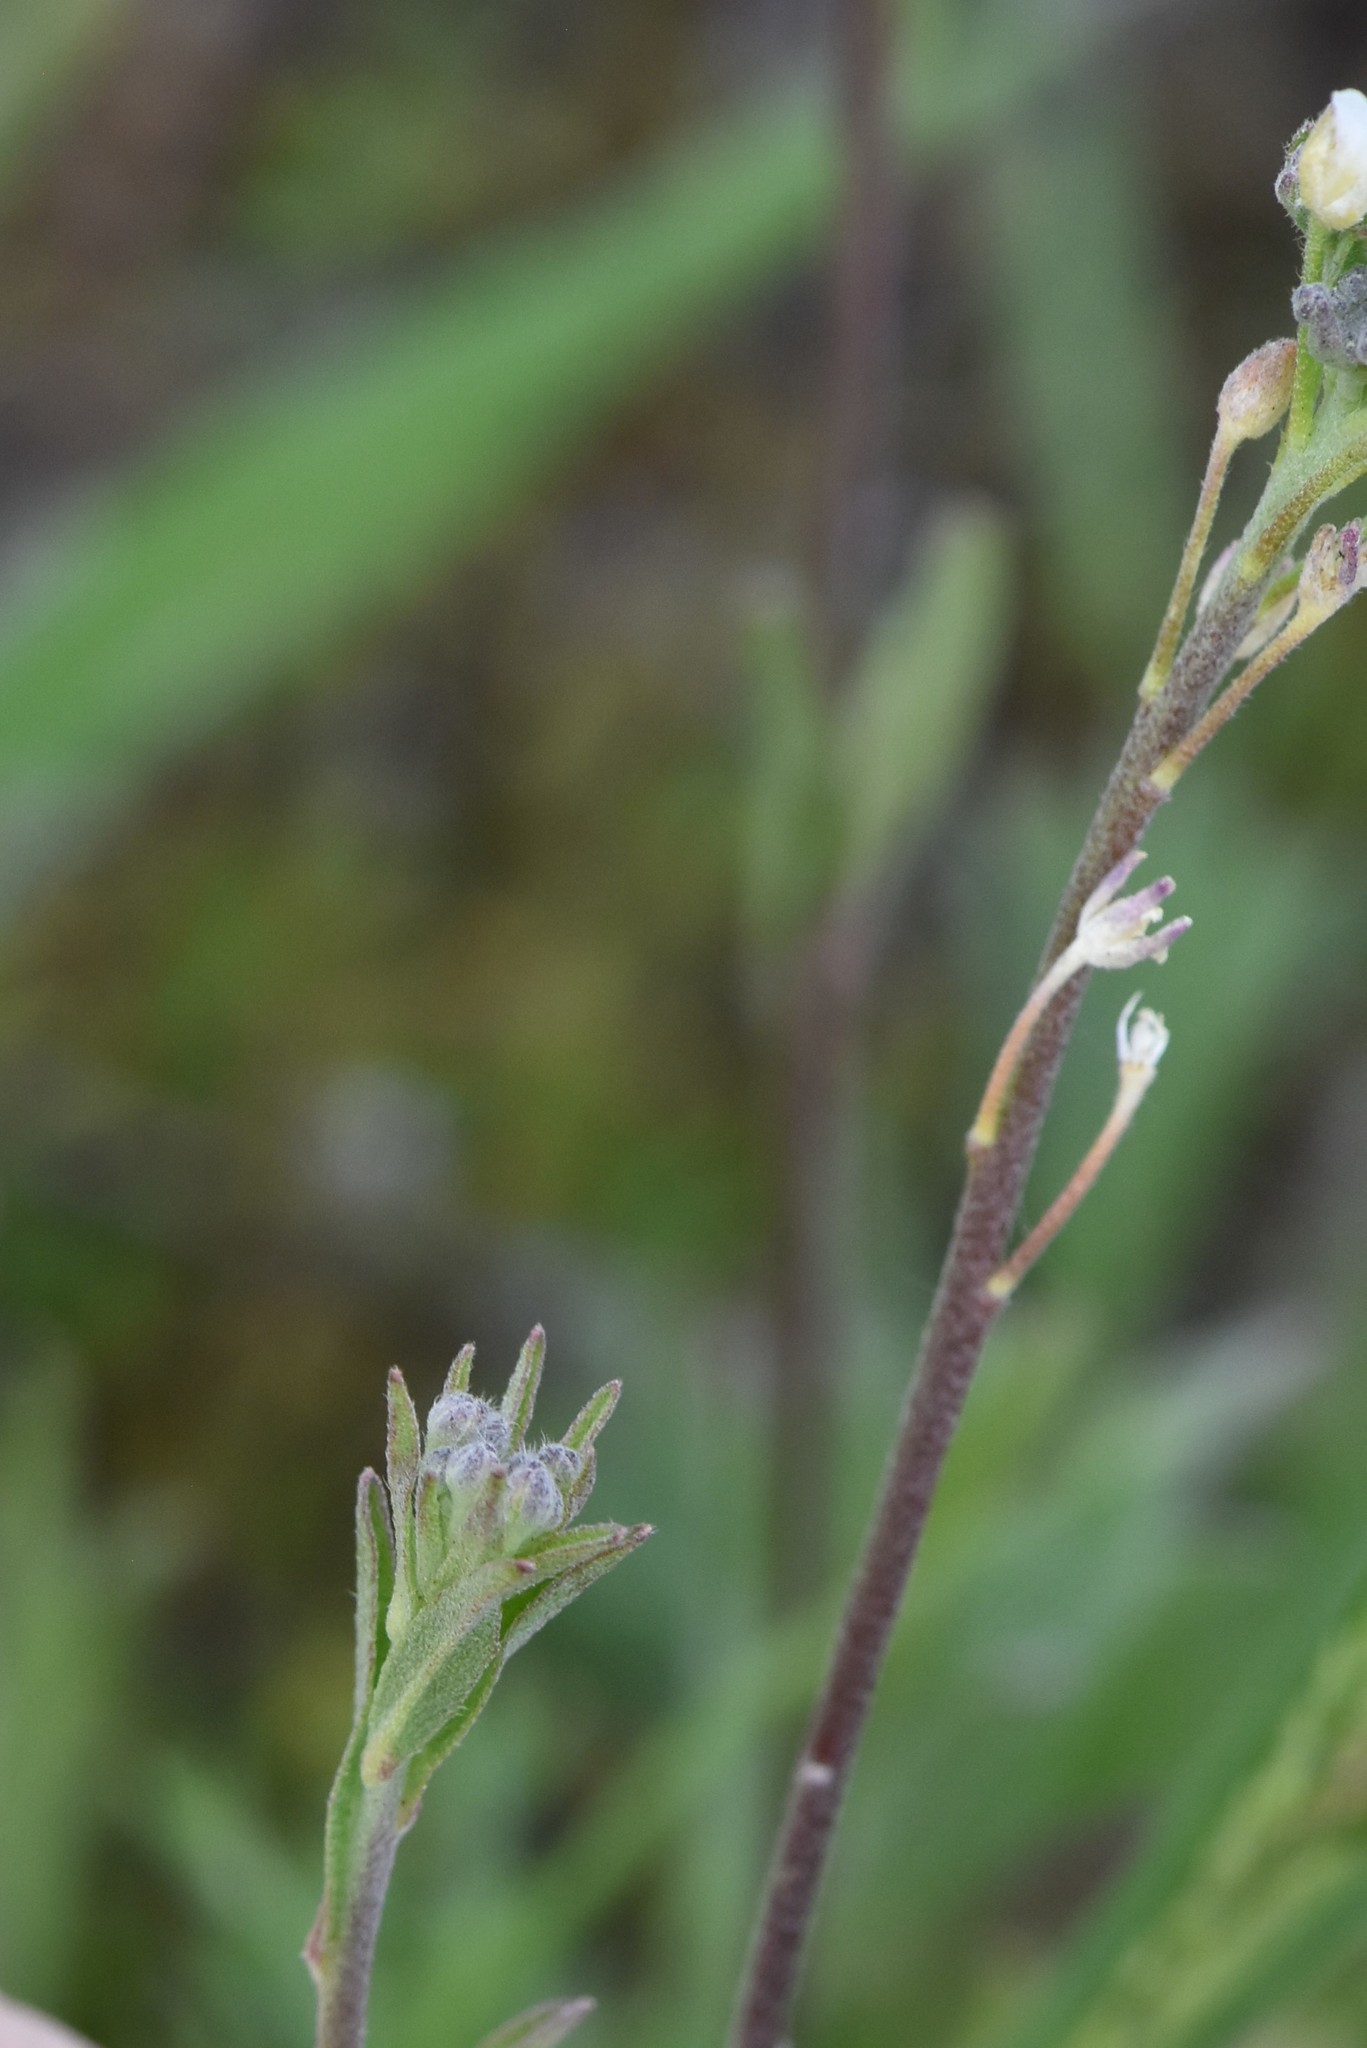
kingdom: Plantae
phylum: Tracheophyta
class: Magnoliopsida
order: Brassicales
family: Brassicaceae
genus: Berteroa
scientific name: Berteroa incana
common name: Hoary alison
